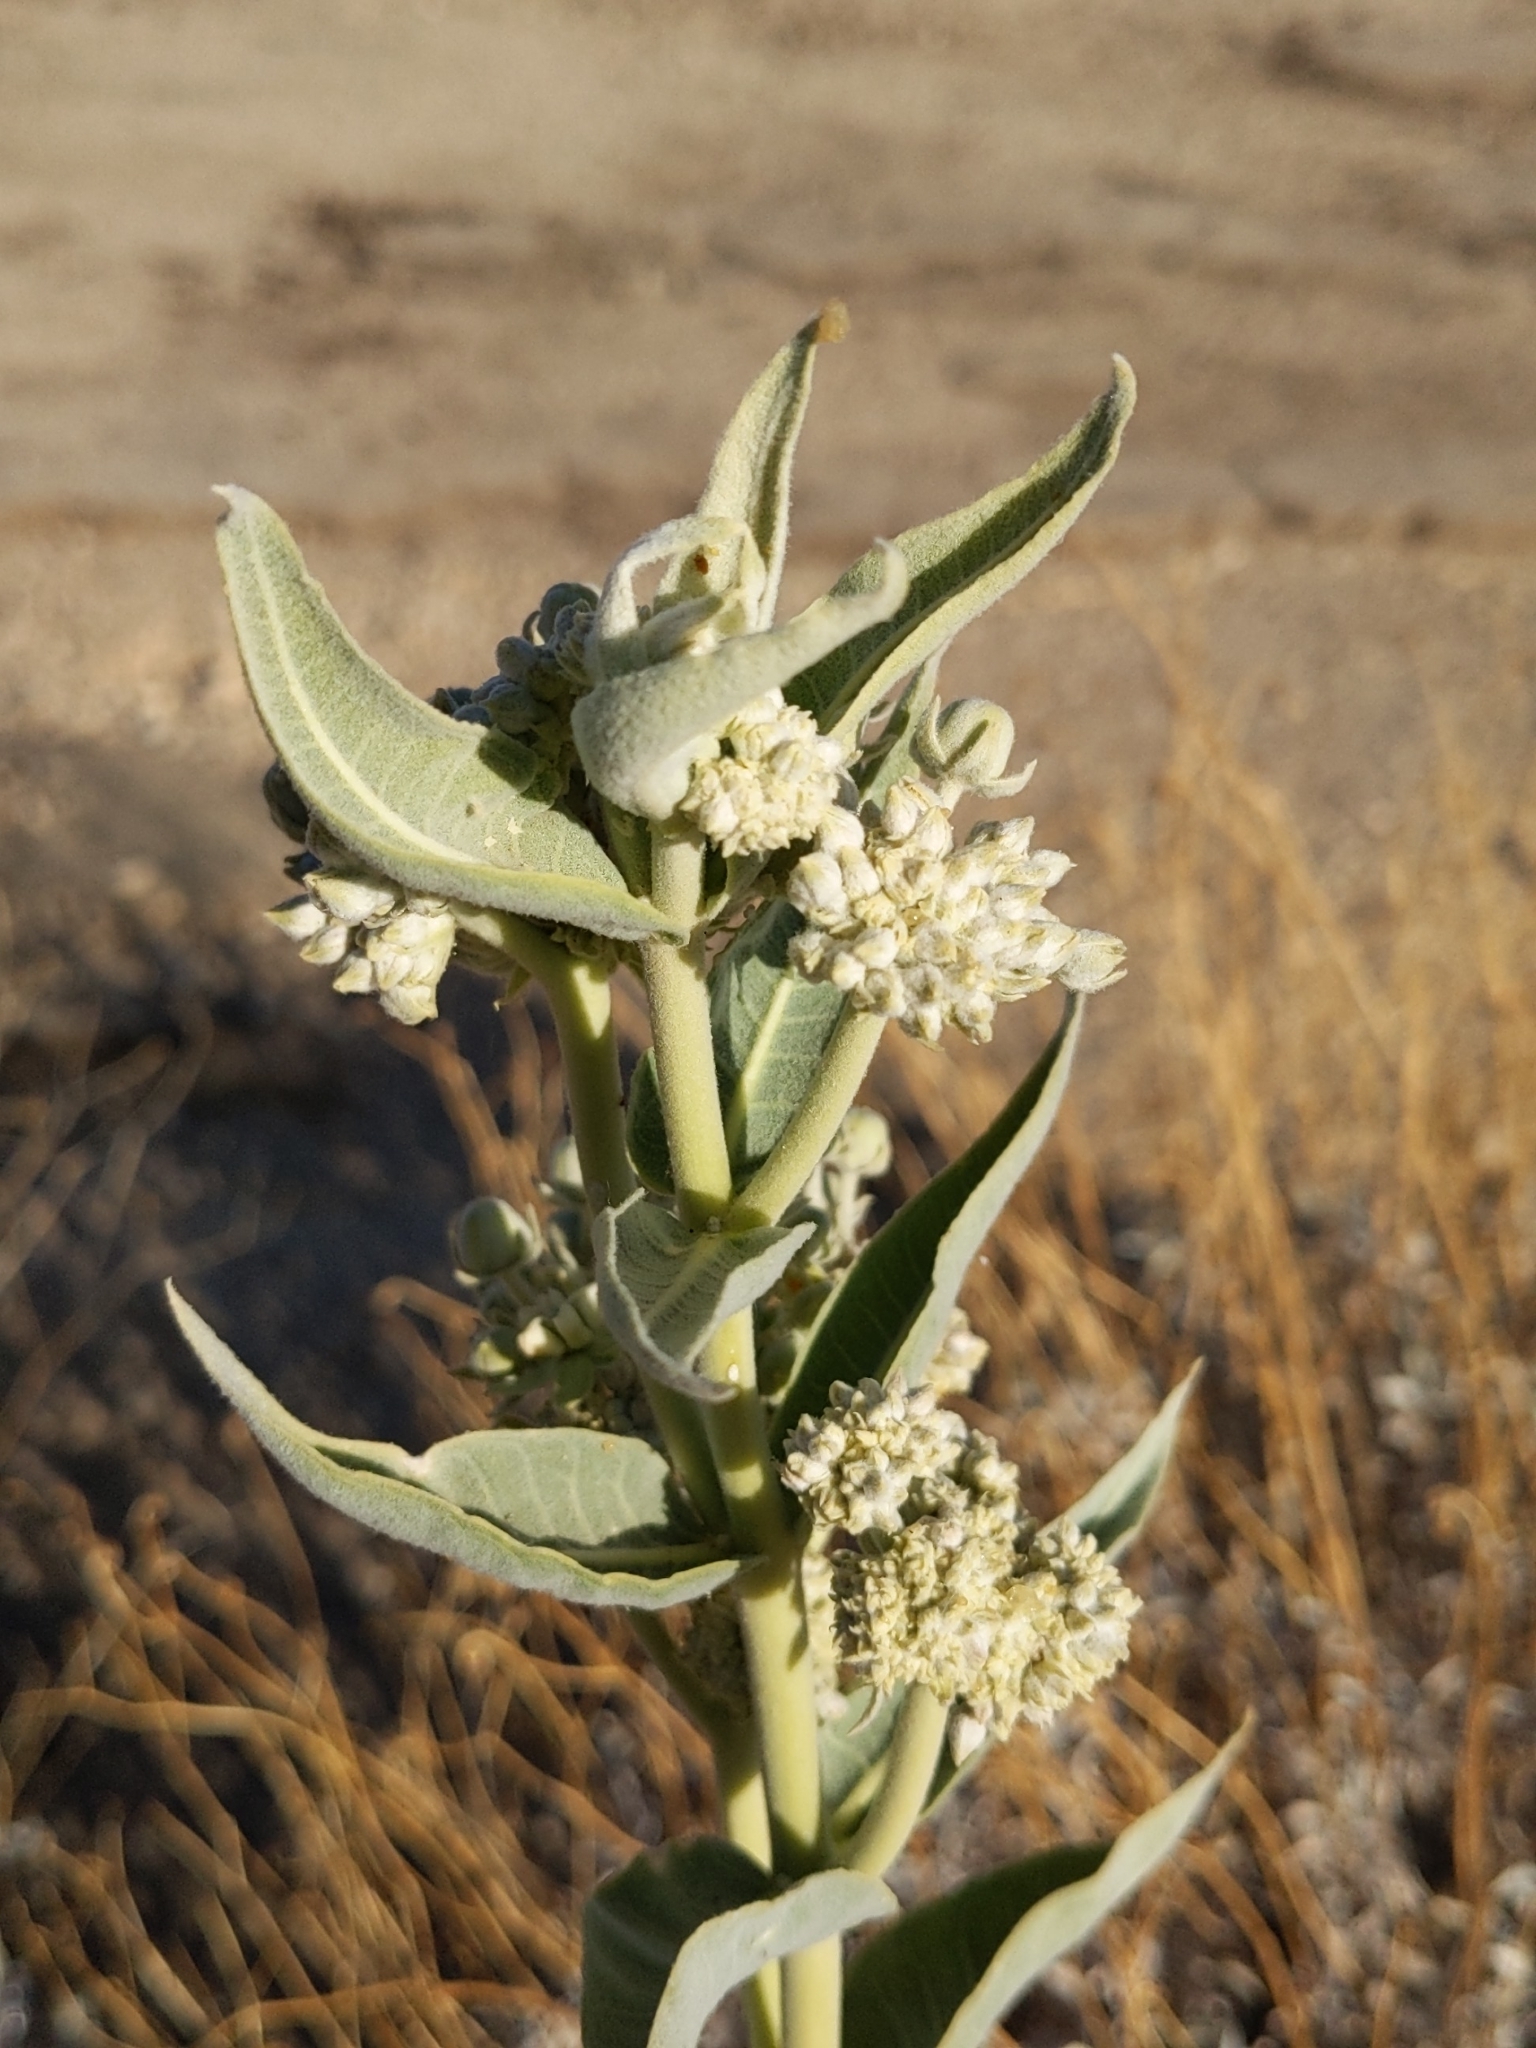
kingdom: Plantae
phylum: Tracheophyta
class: Magnoliopsida
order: Gentianales
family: Apocynaceae
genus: Asclepias
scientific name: Asclepias erosa
